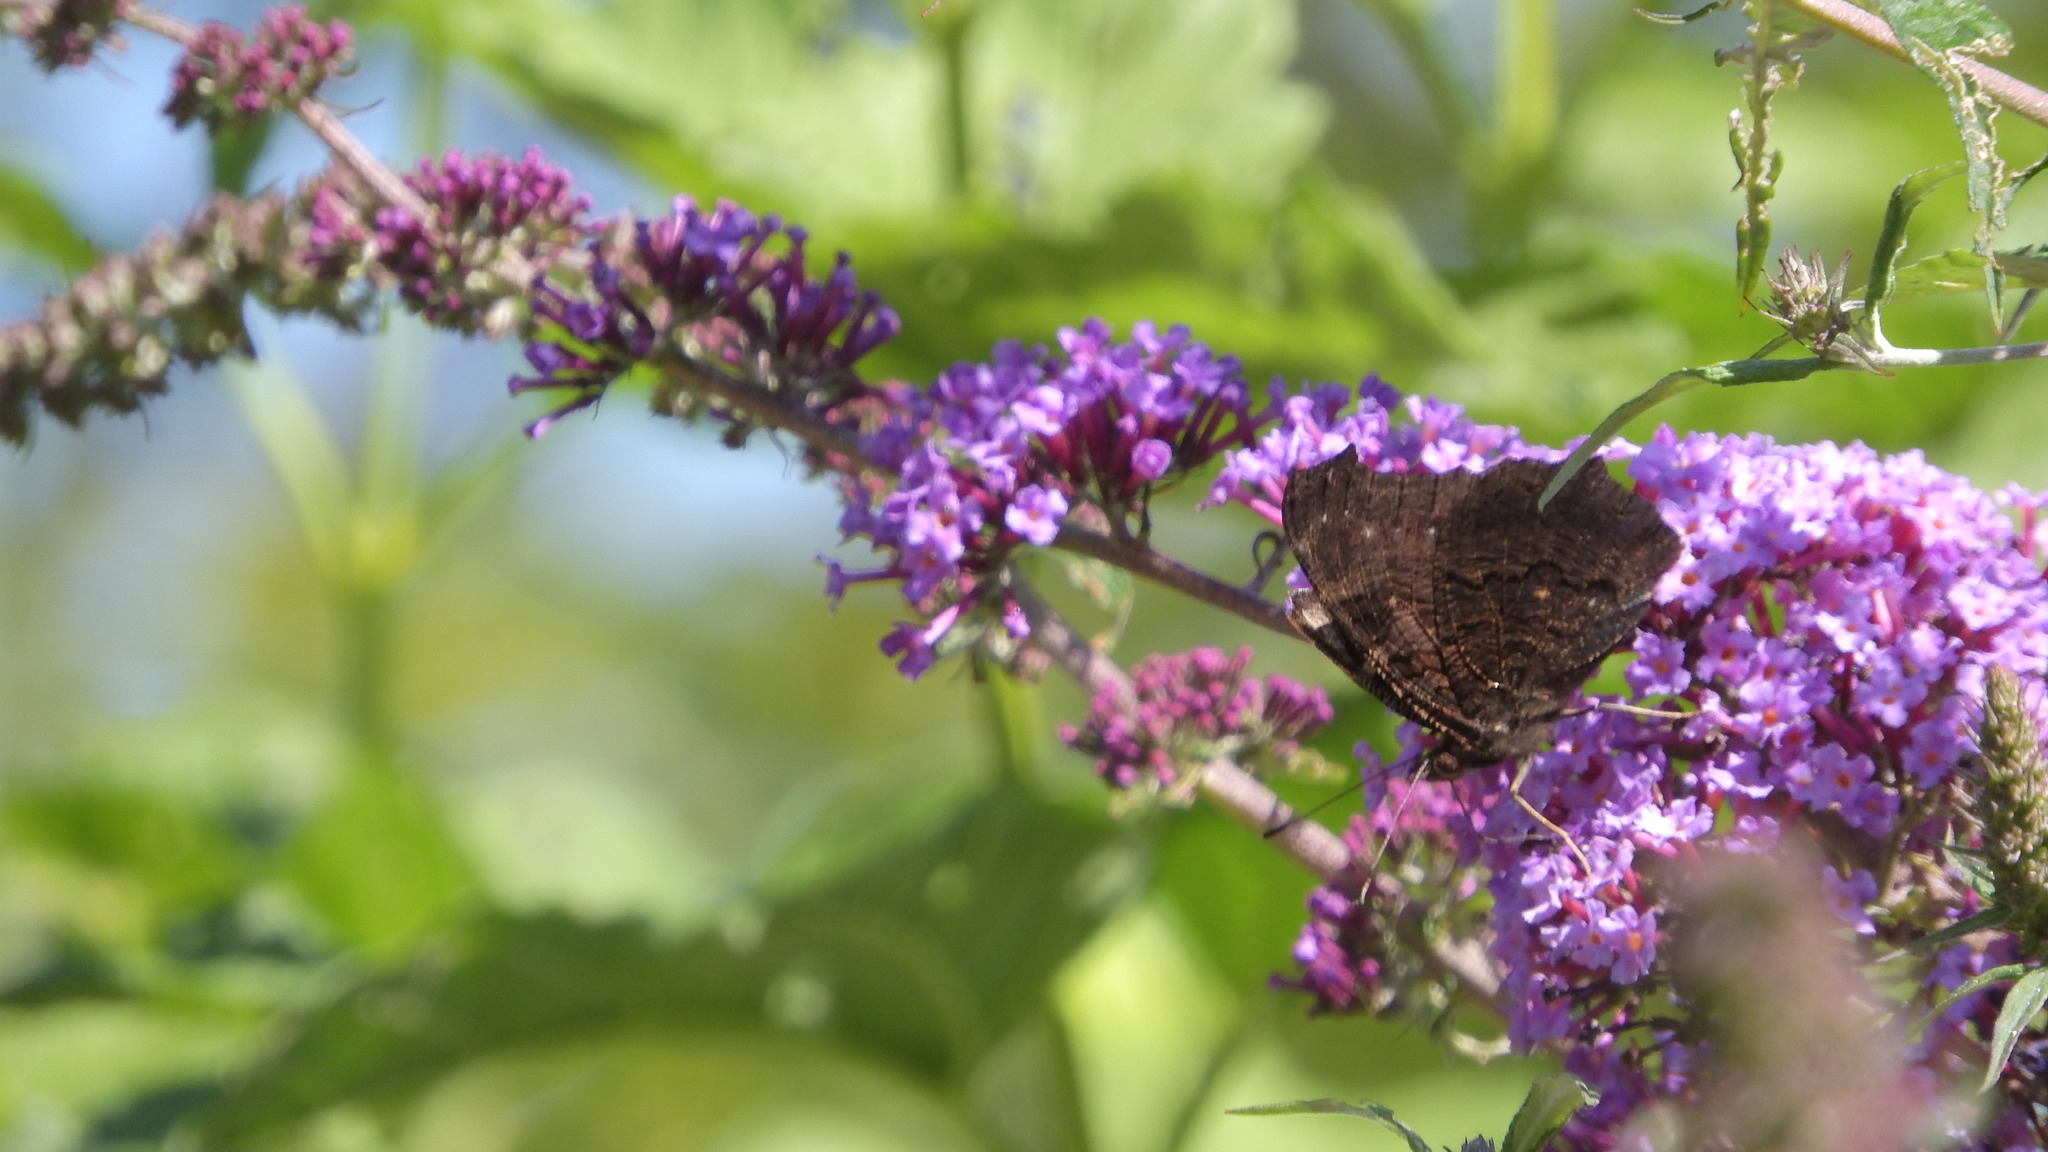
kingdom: Animalia
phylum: Arthropoda
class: Insecta
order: Lepidoptera
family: Nymphalidae
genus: Aglais
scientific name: Aglais io
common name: Peacock
